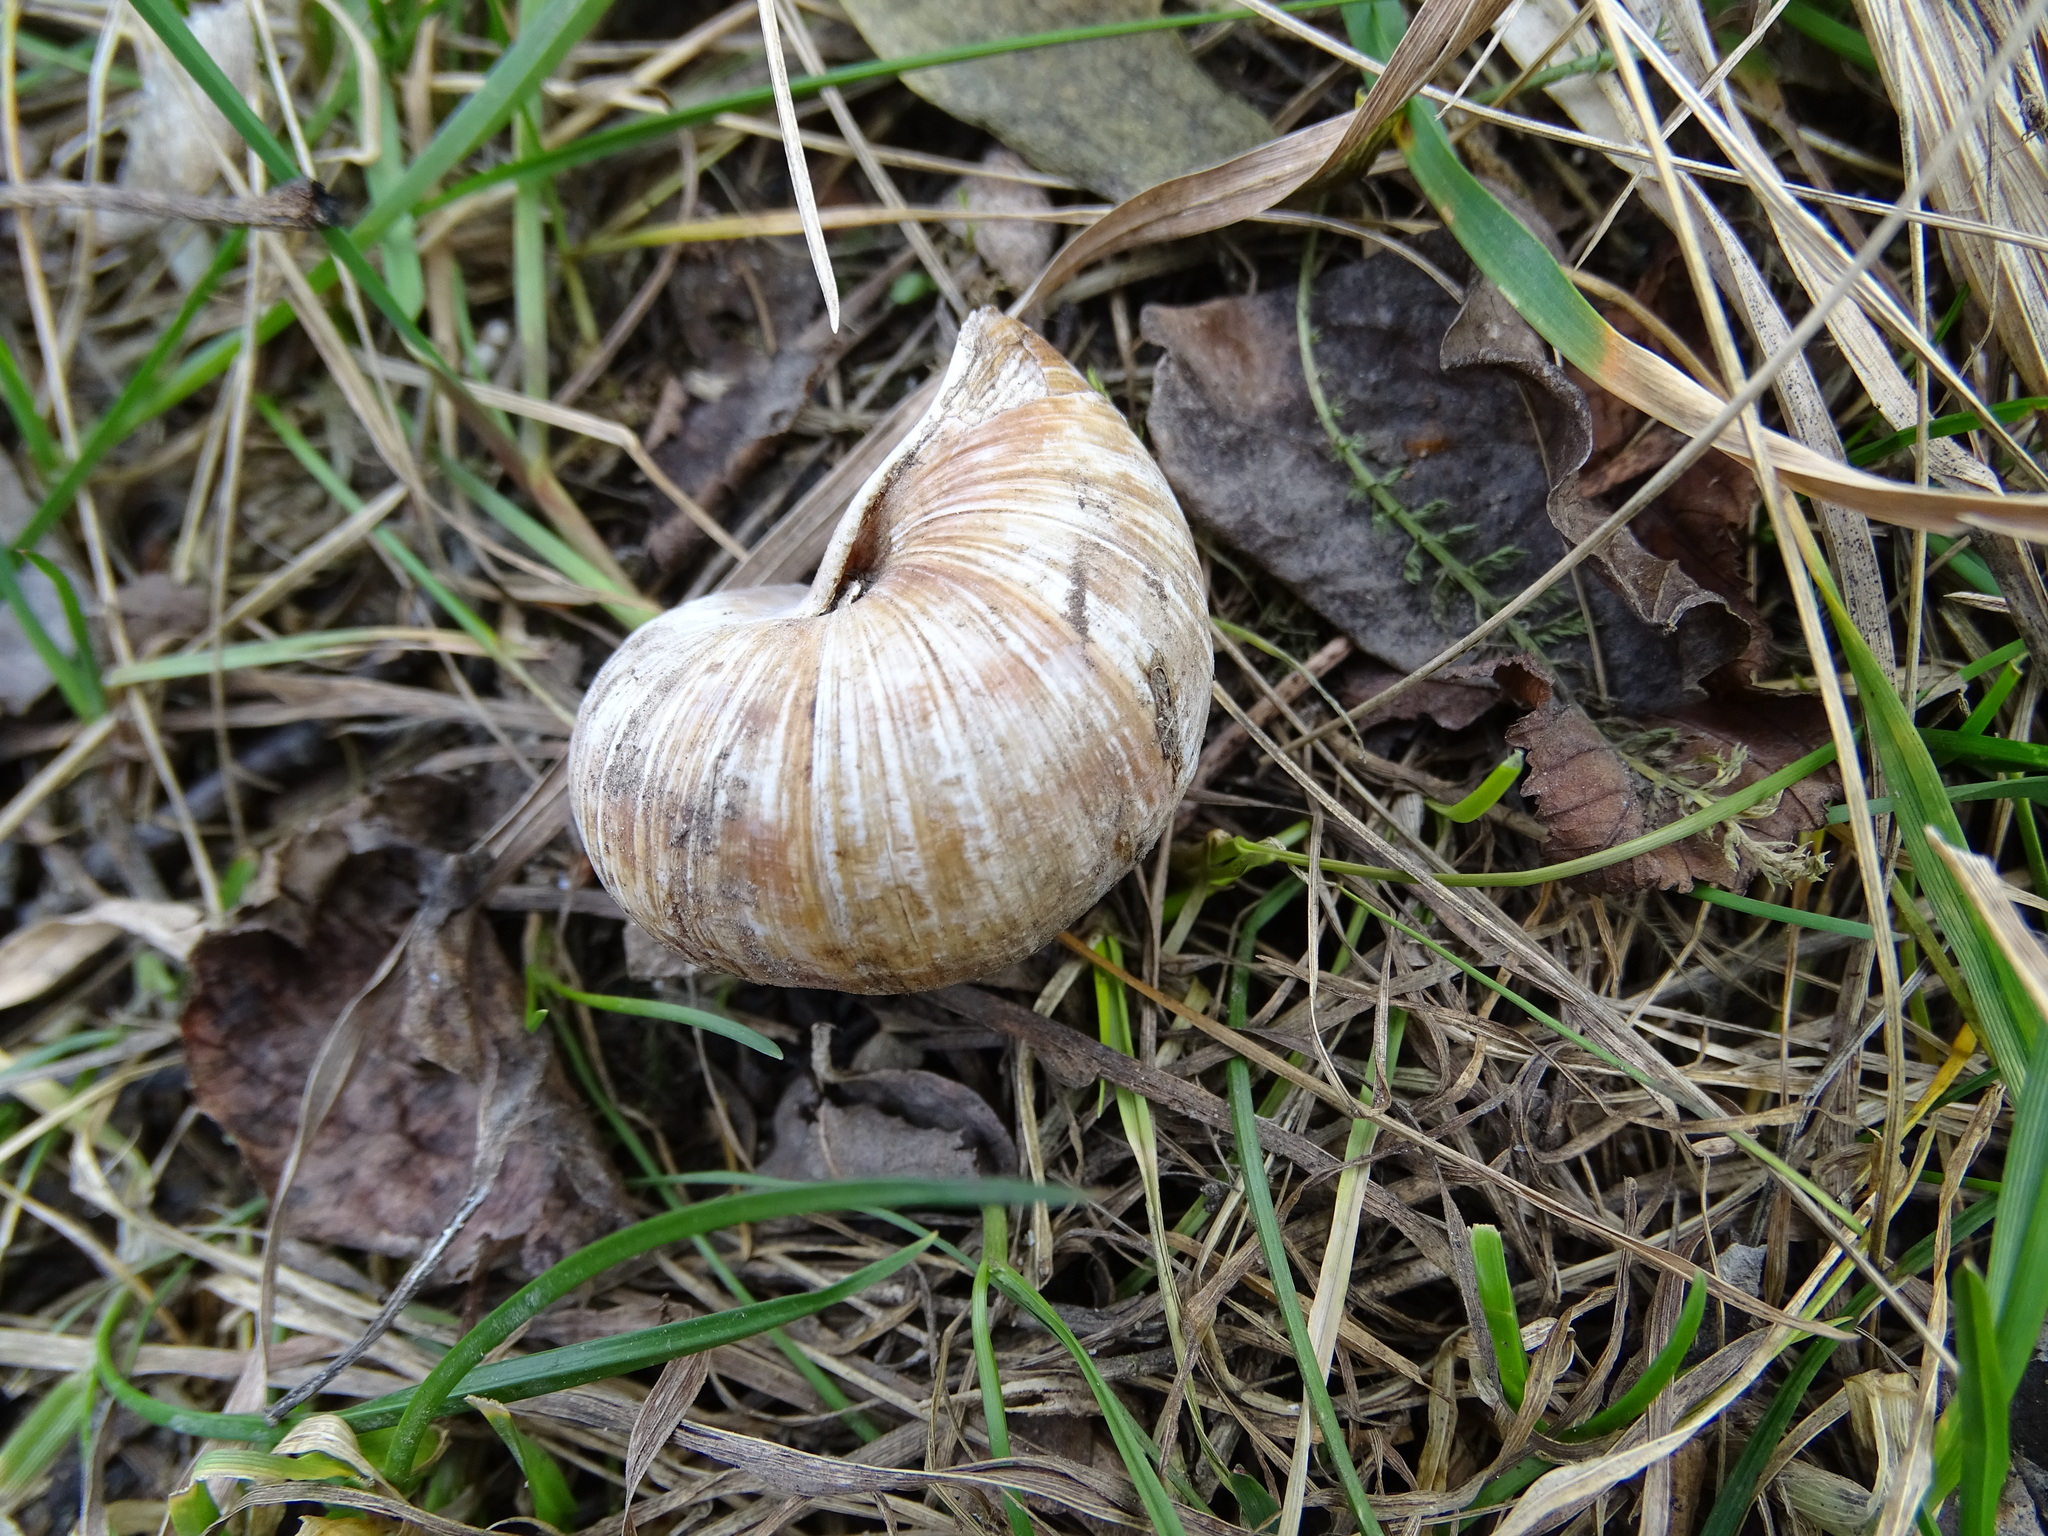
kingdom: Animalia
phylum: Mollusca
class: Gastropoda
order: Stylommatophora
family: Helicidae
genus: Helix
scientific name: Helix pomatia
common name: Roman snail
